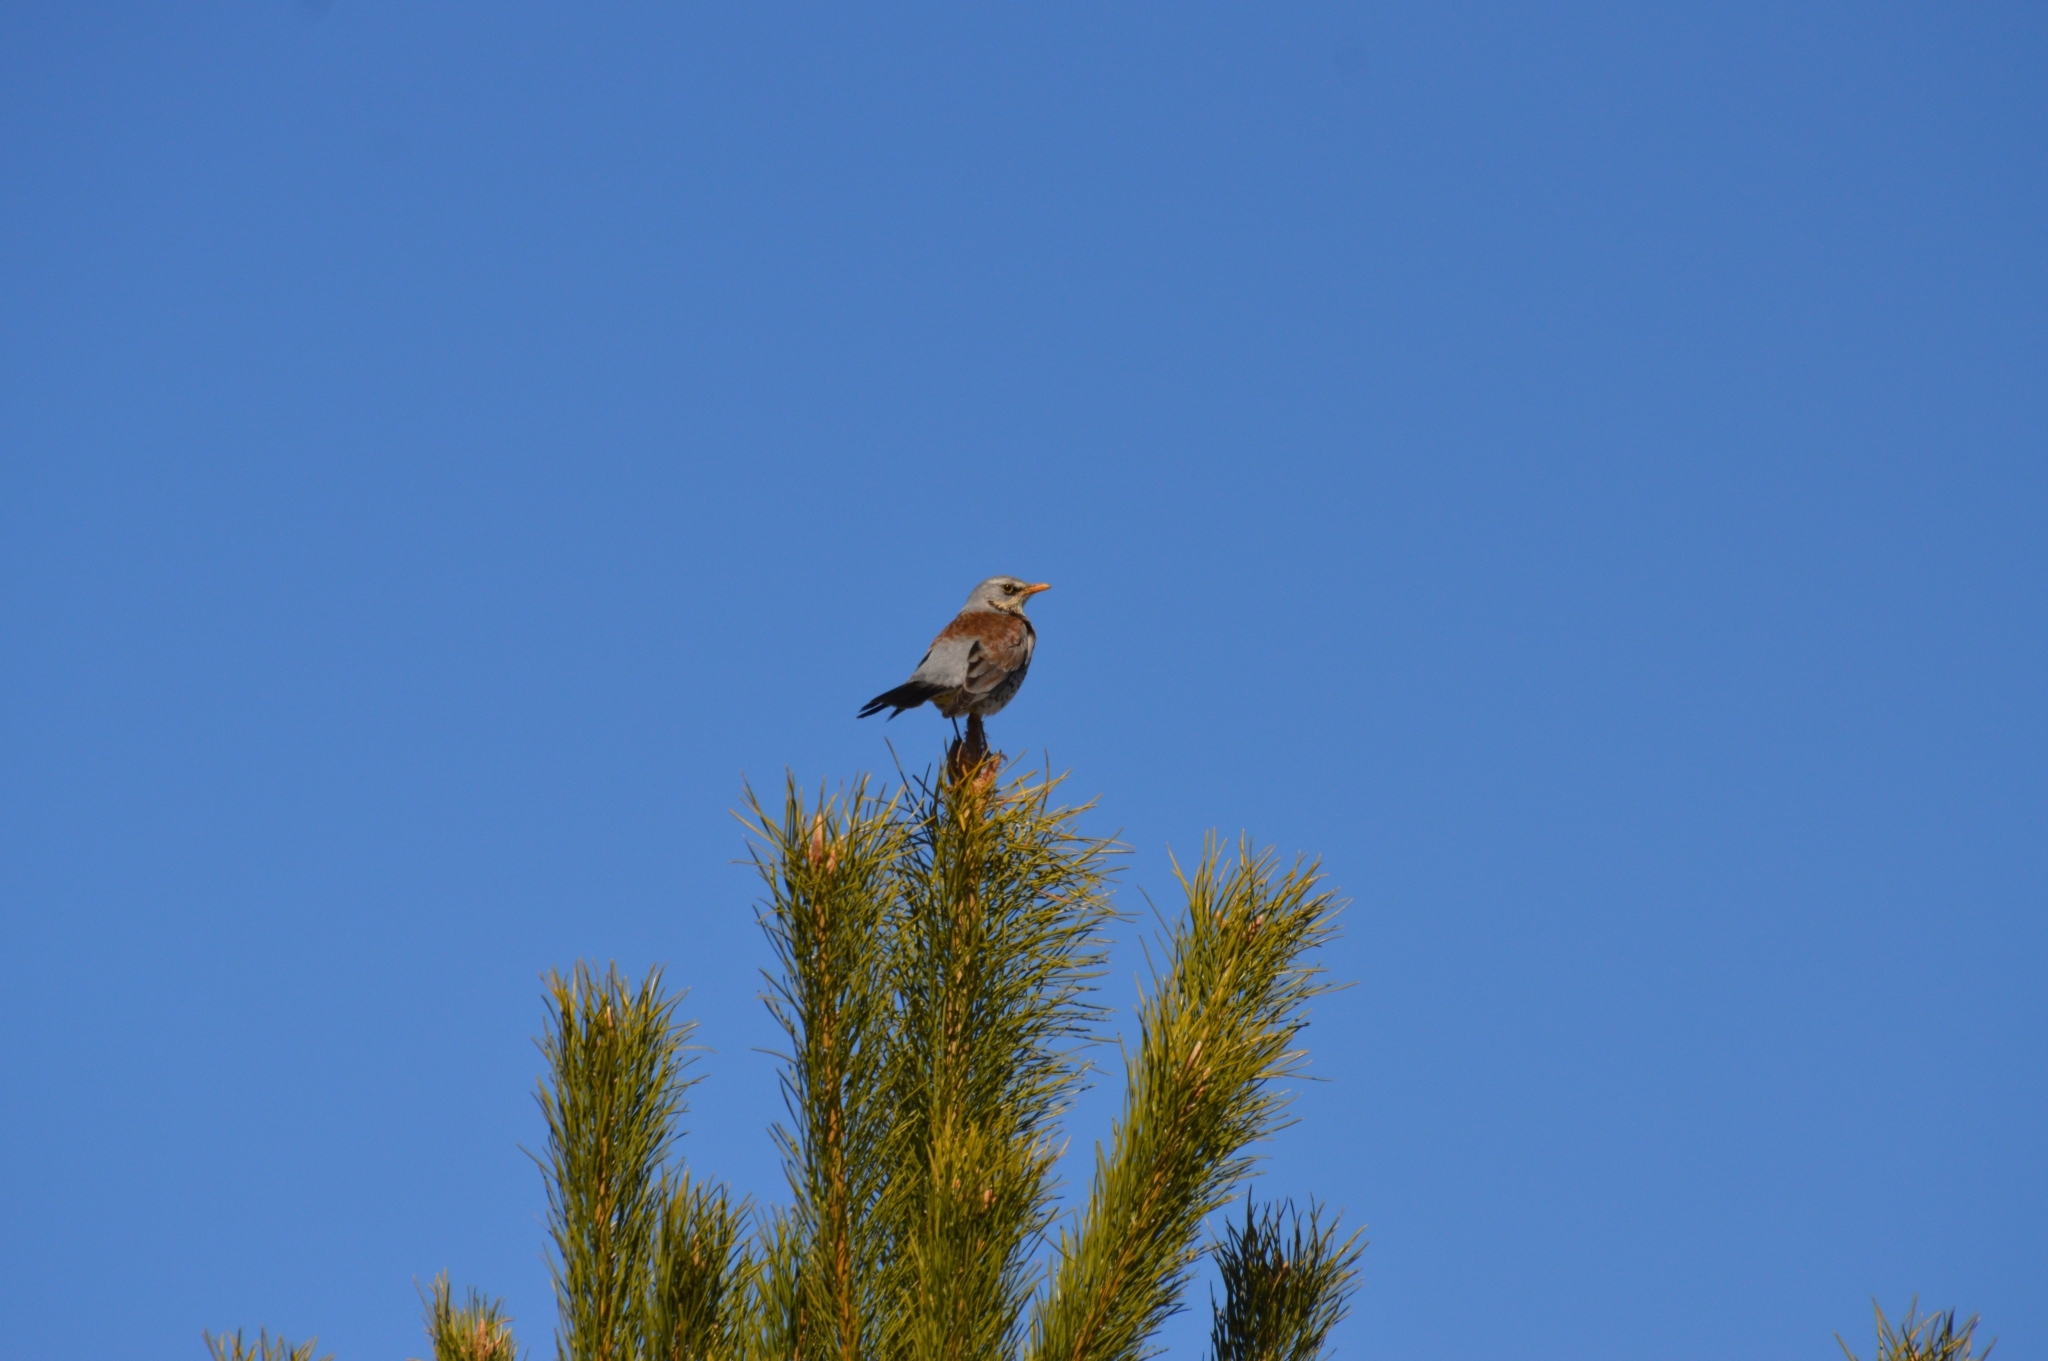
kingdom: Animalia
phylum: Chordata
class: Aves
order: Passeriformes
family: Turdidae
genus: Turdus
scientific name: Turdus pilaris
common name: Fieldfare
